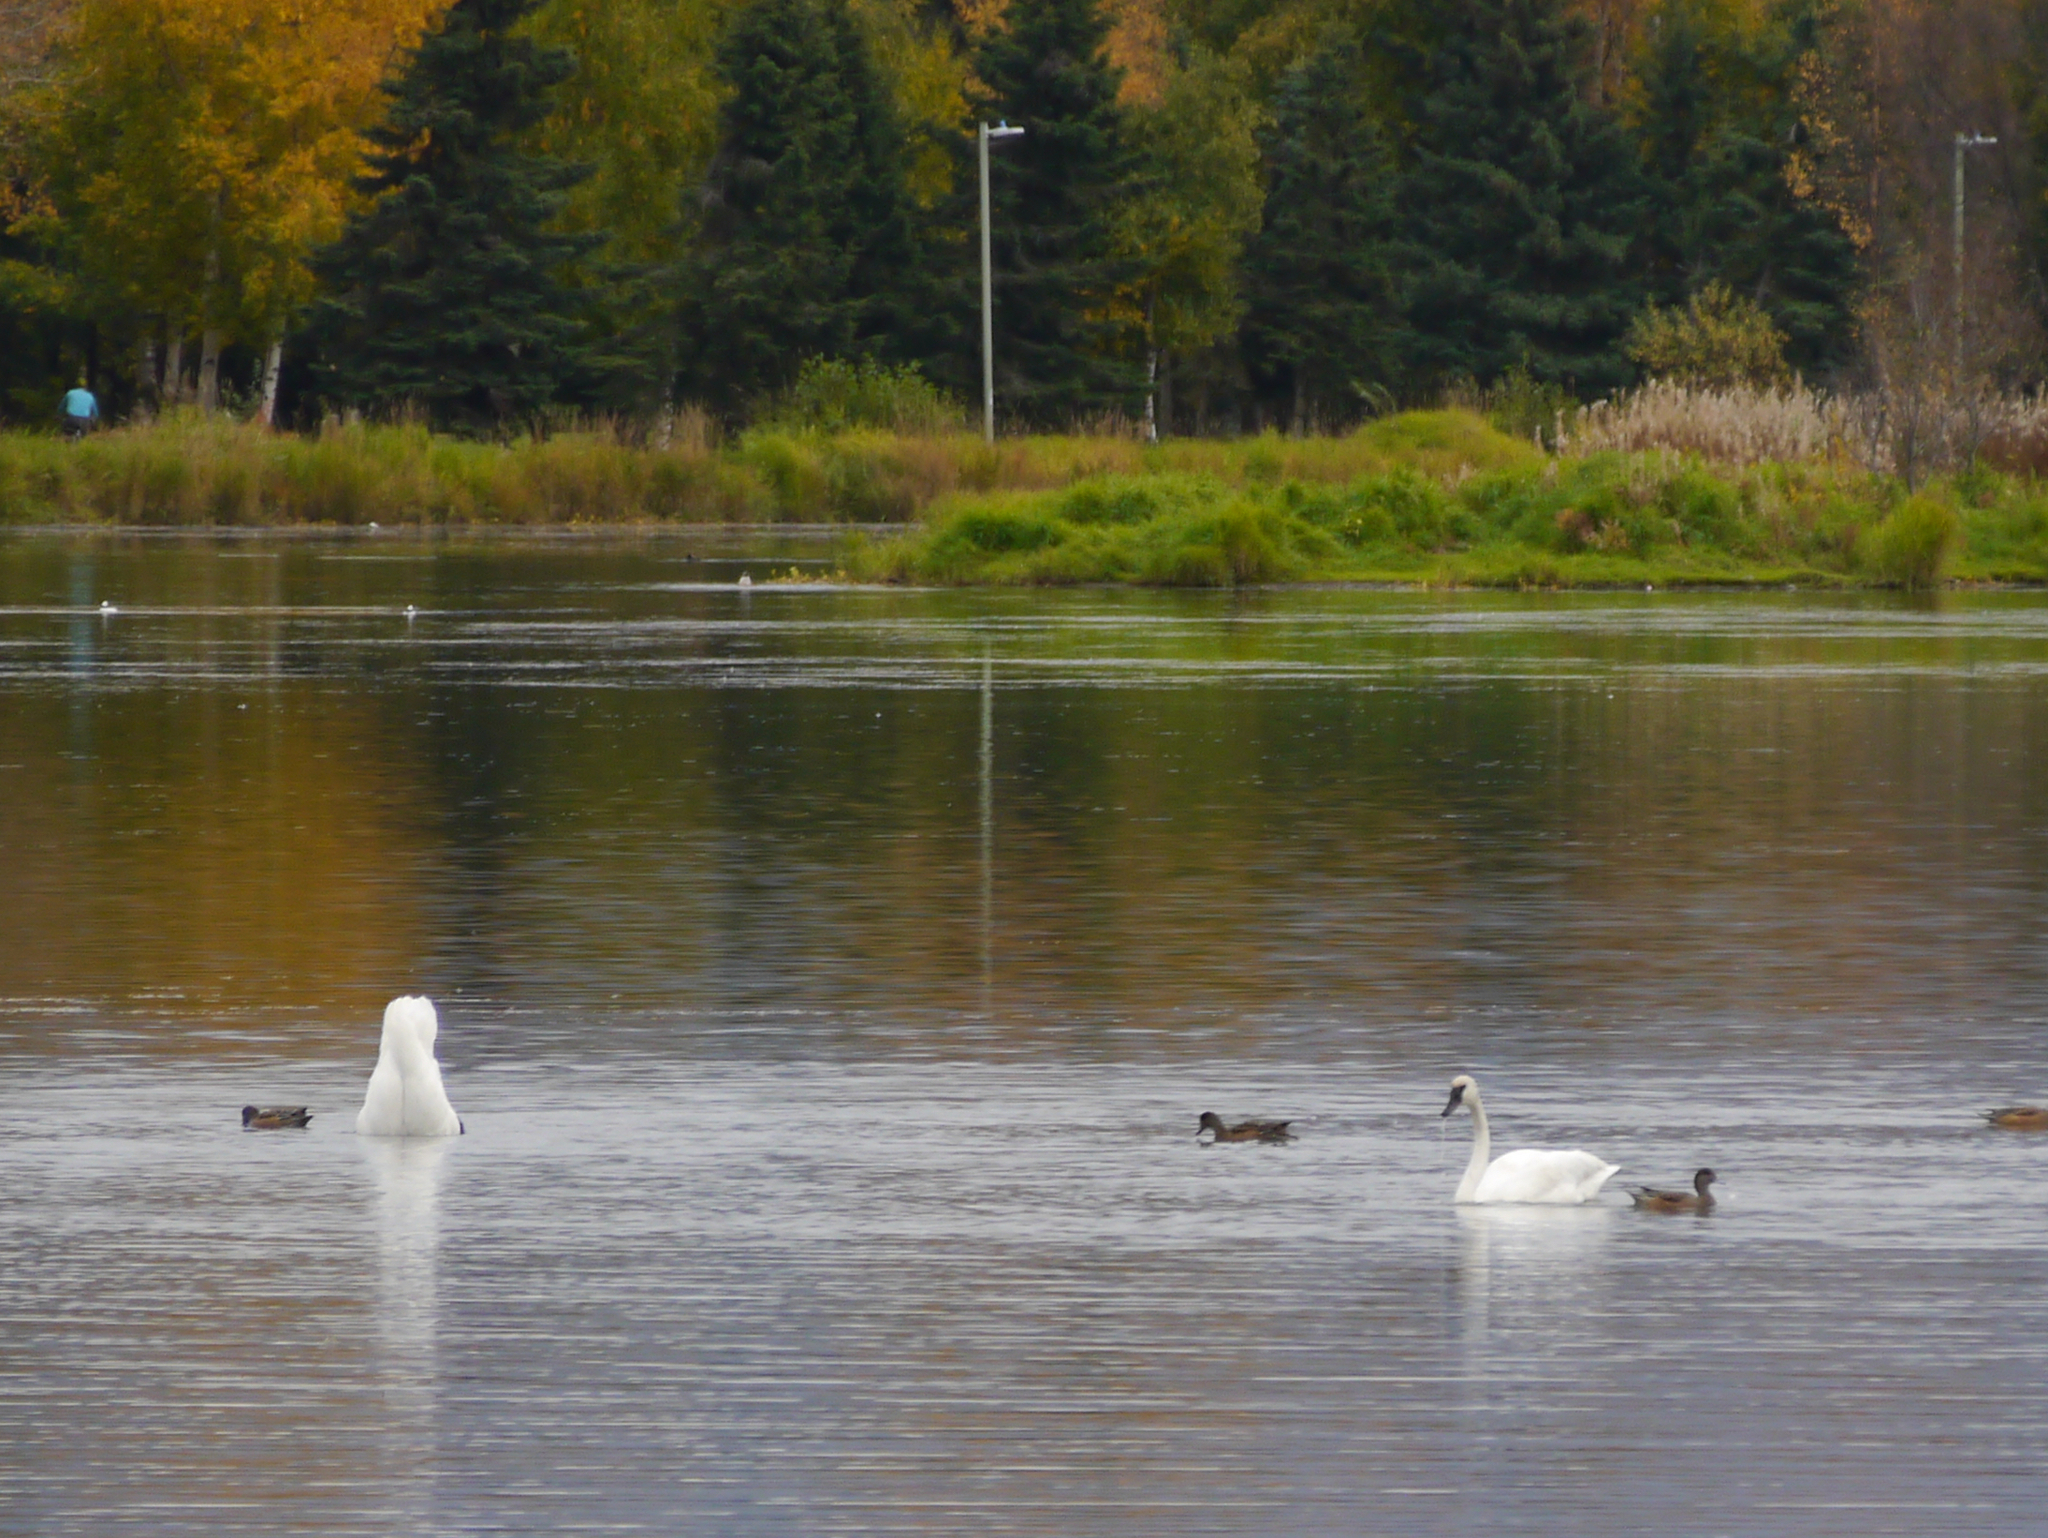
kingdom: Animalia
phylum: Chordata
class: Aves
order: Anseriformes
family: Anatidae
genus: Cygnus
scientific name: Cygnus buccinator
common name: Trumpeter swan
